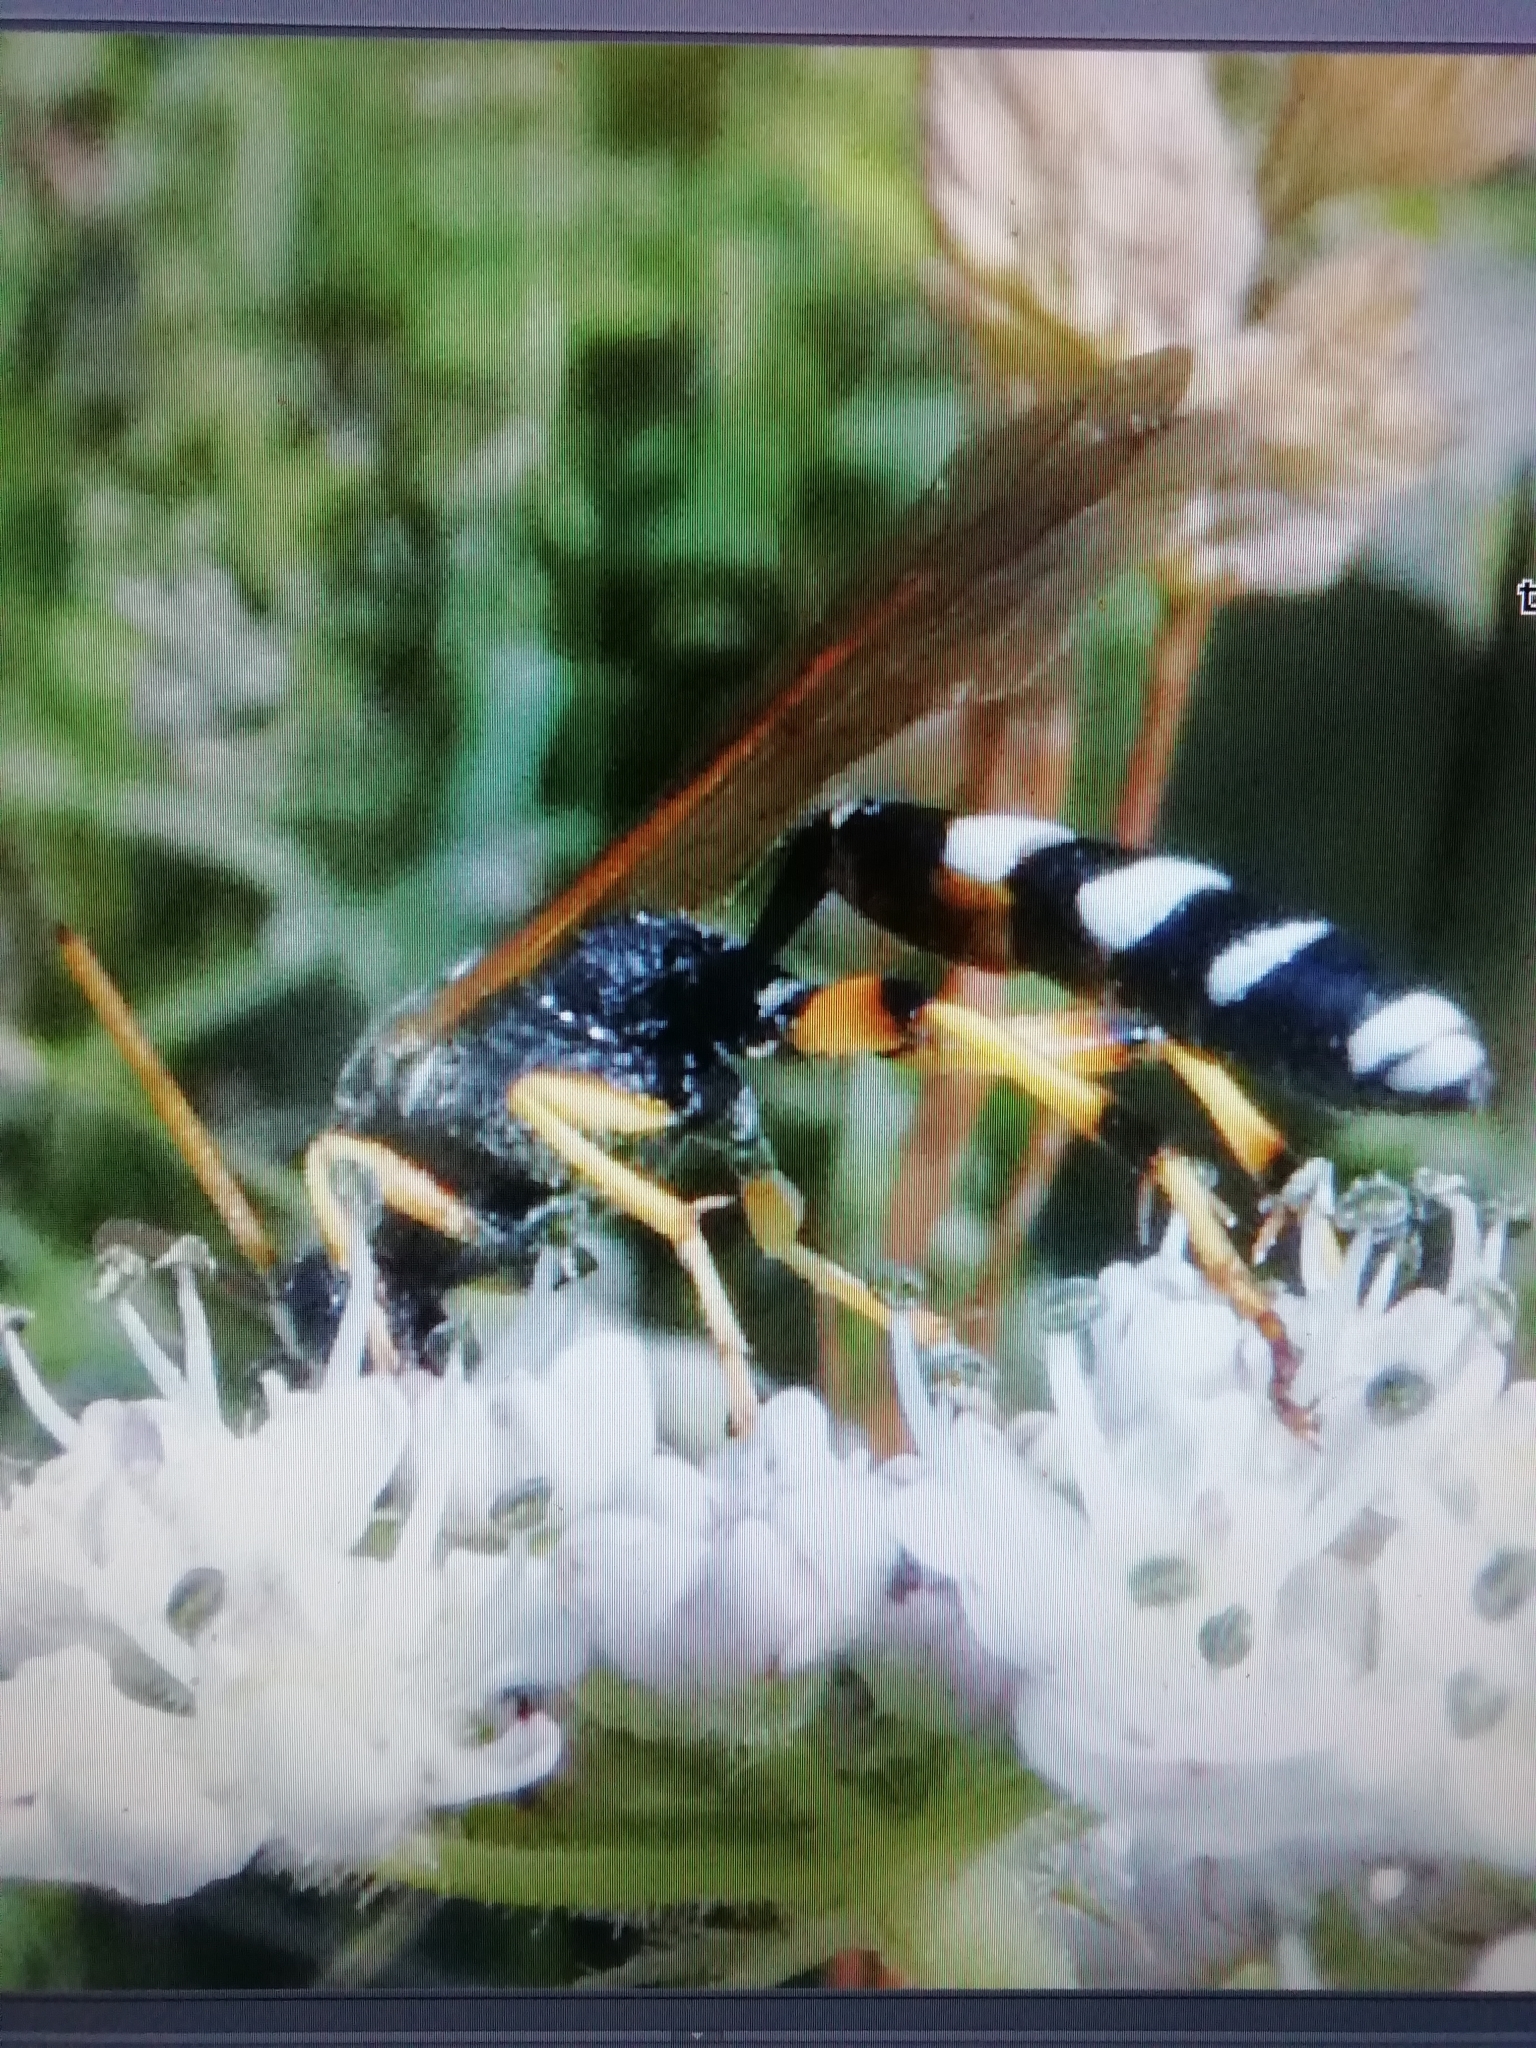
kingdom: Animalia
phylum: Arthropoda
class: Insecta
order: Hymenoptera
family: Ichneumonidae
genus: Ichneumon
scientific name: Ichneumon sarcitorius
